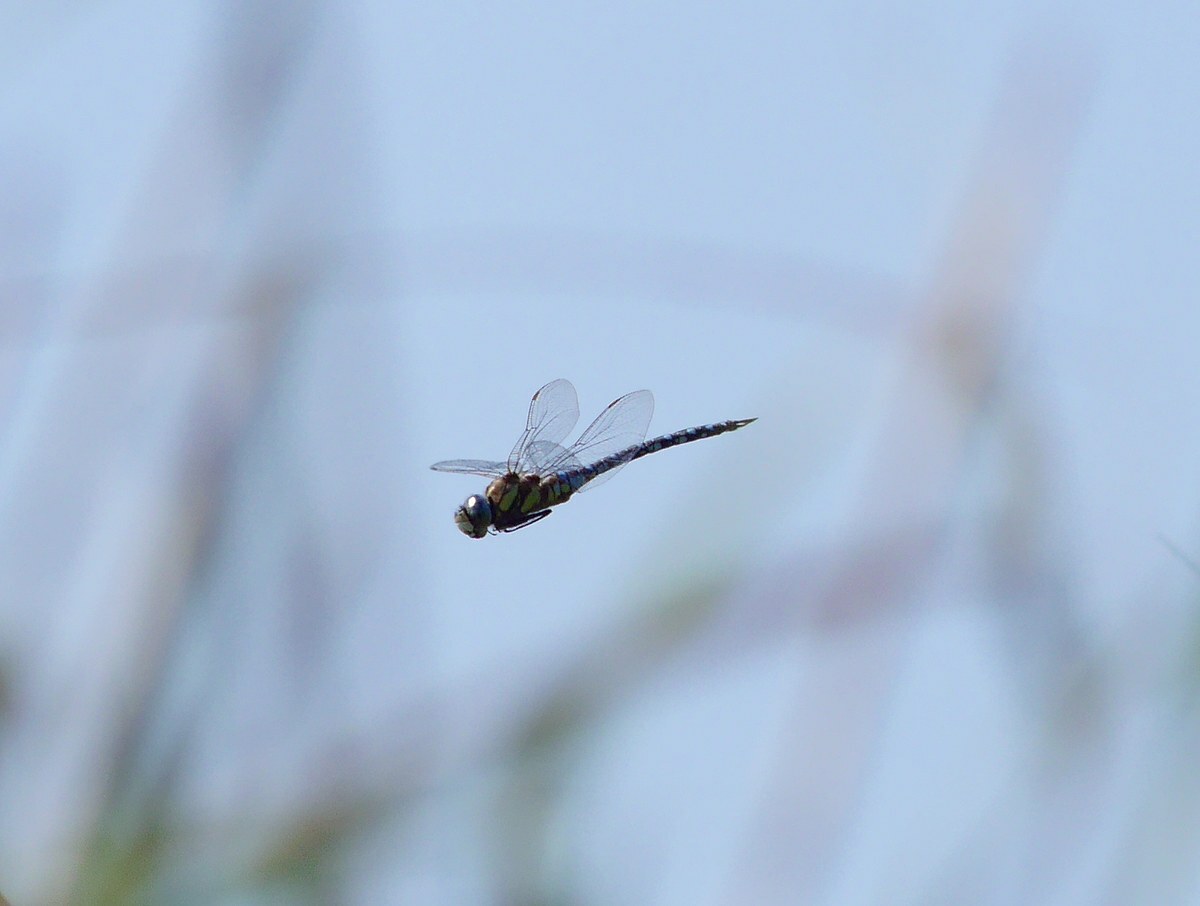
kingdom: Animalia
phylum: Arthropoda
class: Insecta
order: Odonata
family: Aeshnidae
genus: Aeshna
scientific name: Aeshna mixta
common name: Migrant hawker
